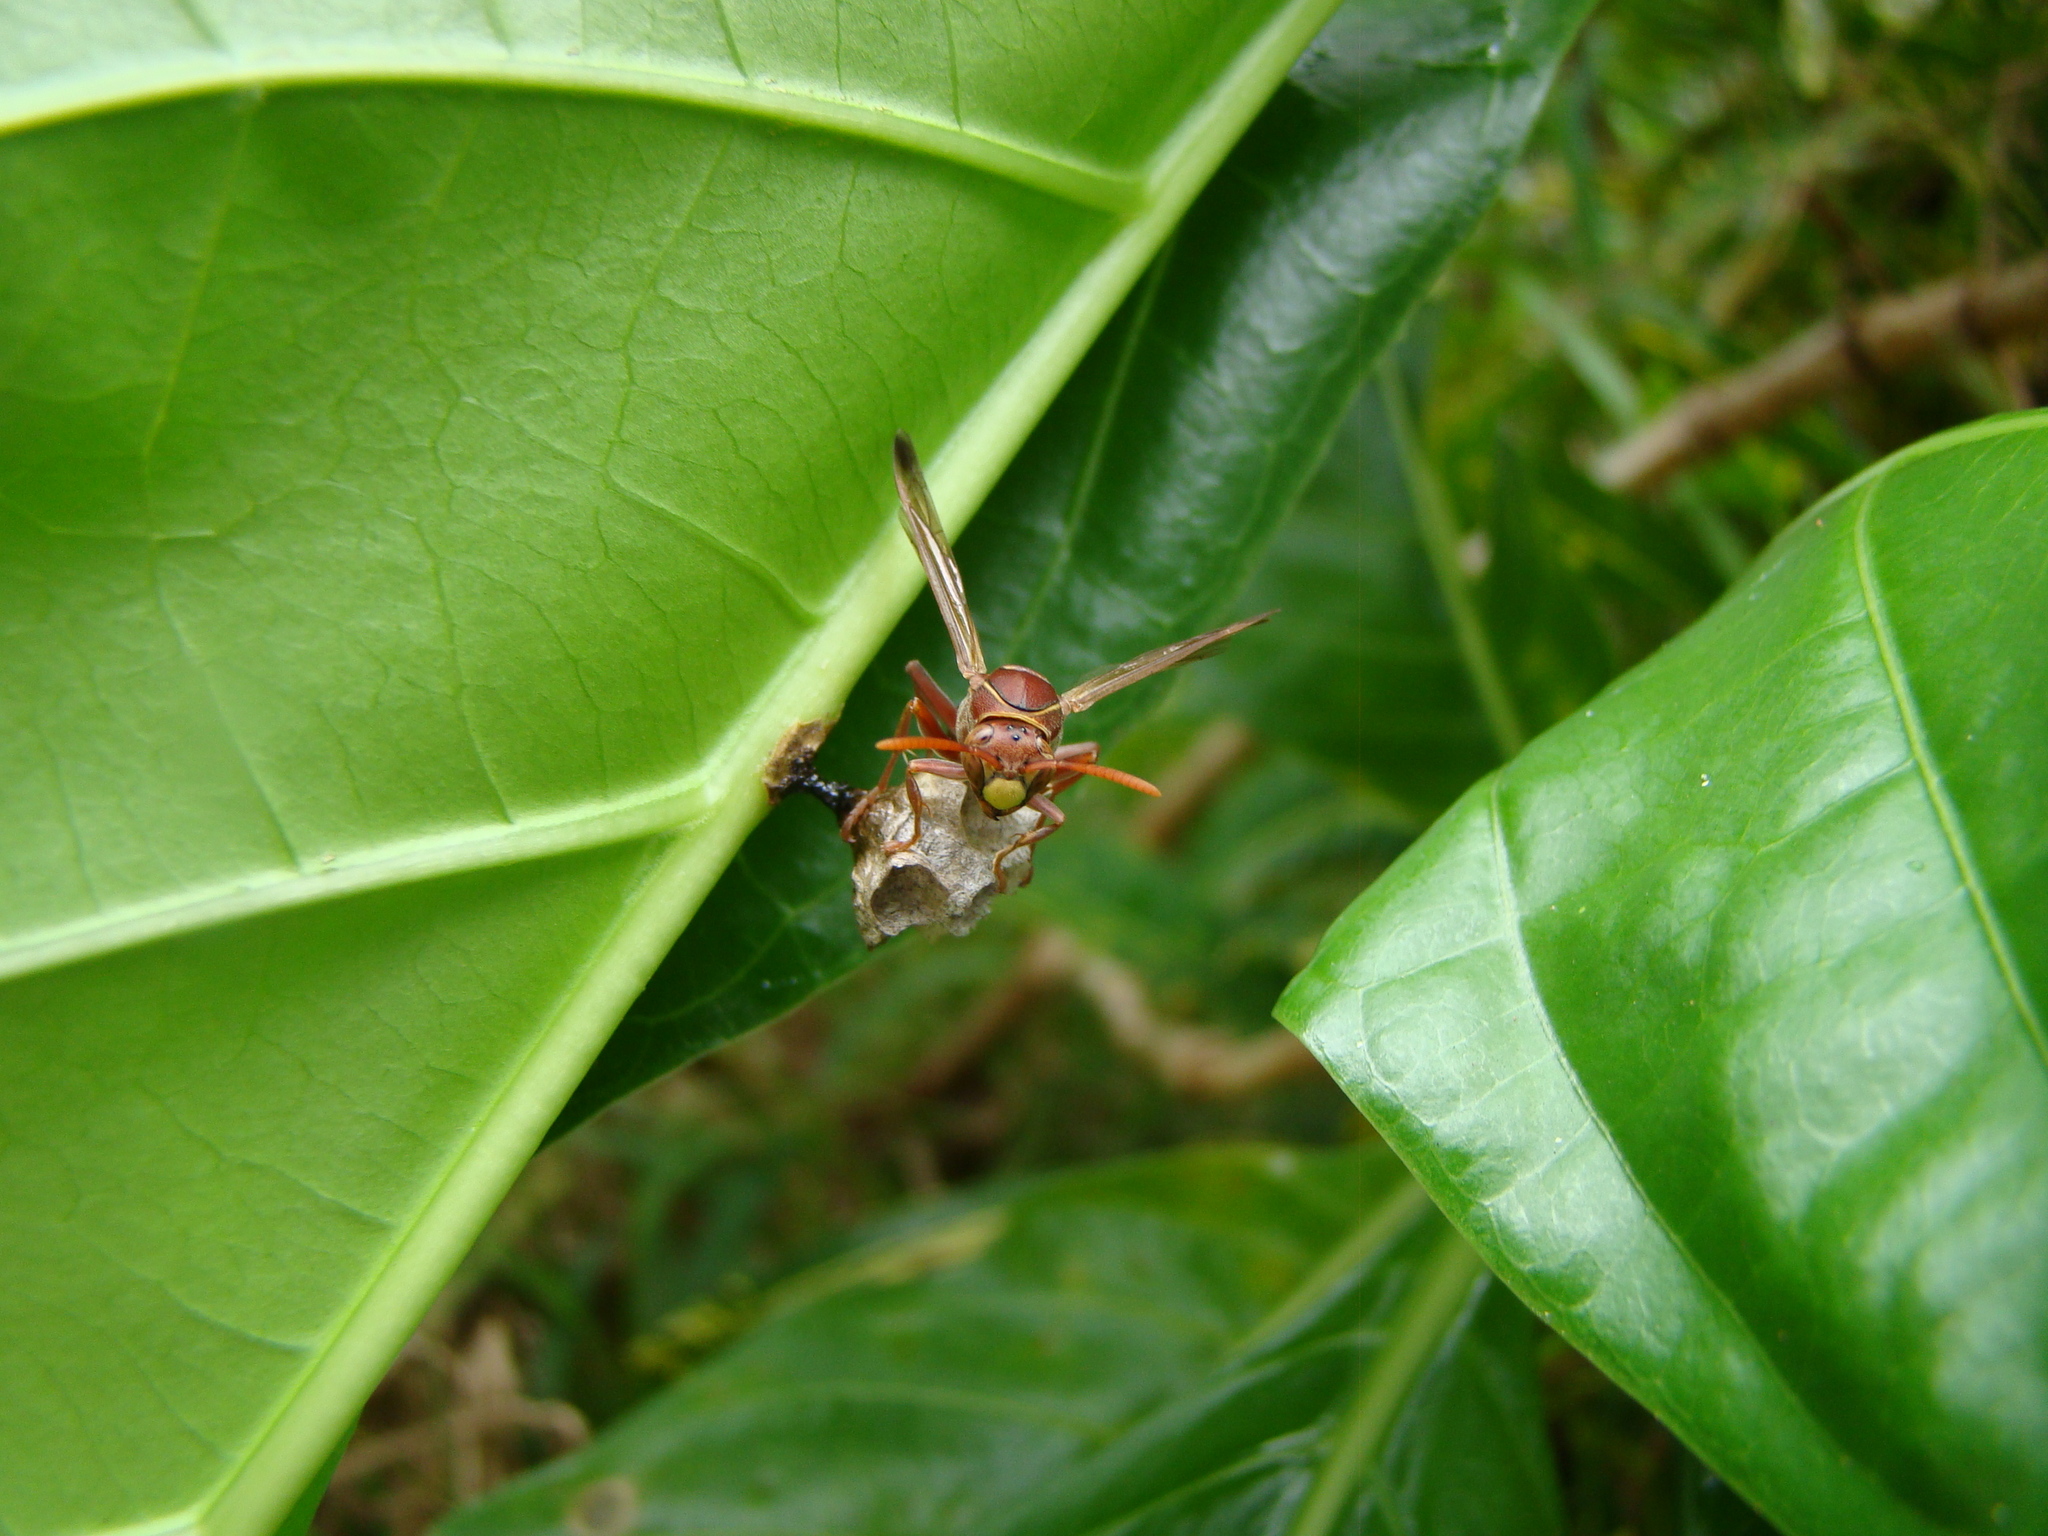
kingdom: Animalia
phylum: Arthropoda
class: Insecta
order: Hymenoptera
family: Eumenidae
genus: Polistes
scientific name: Polistes stigma
